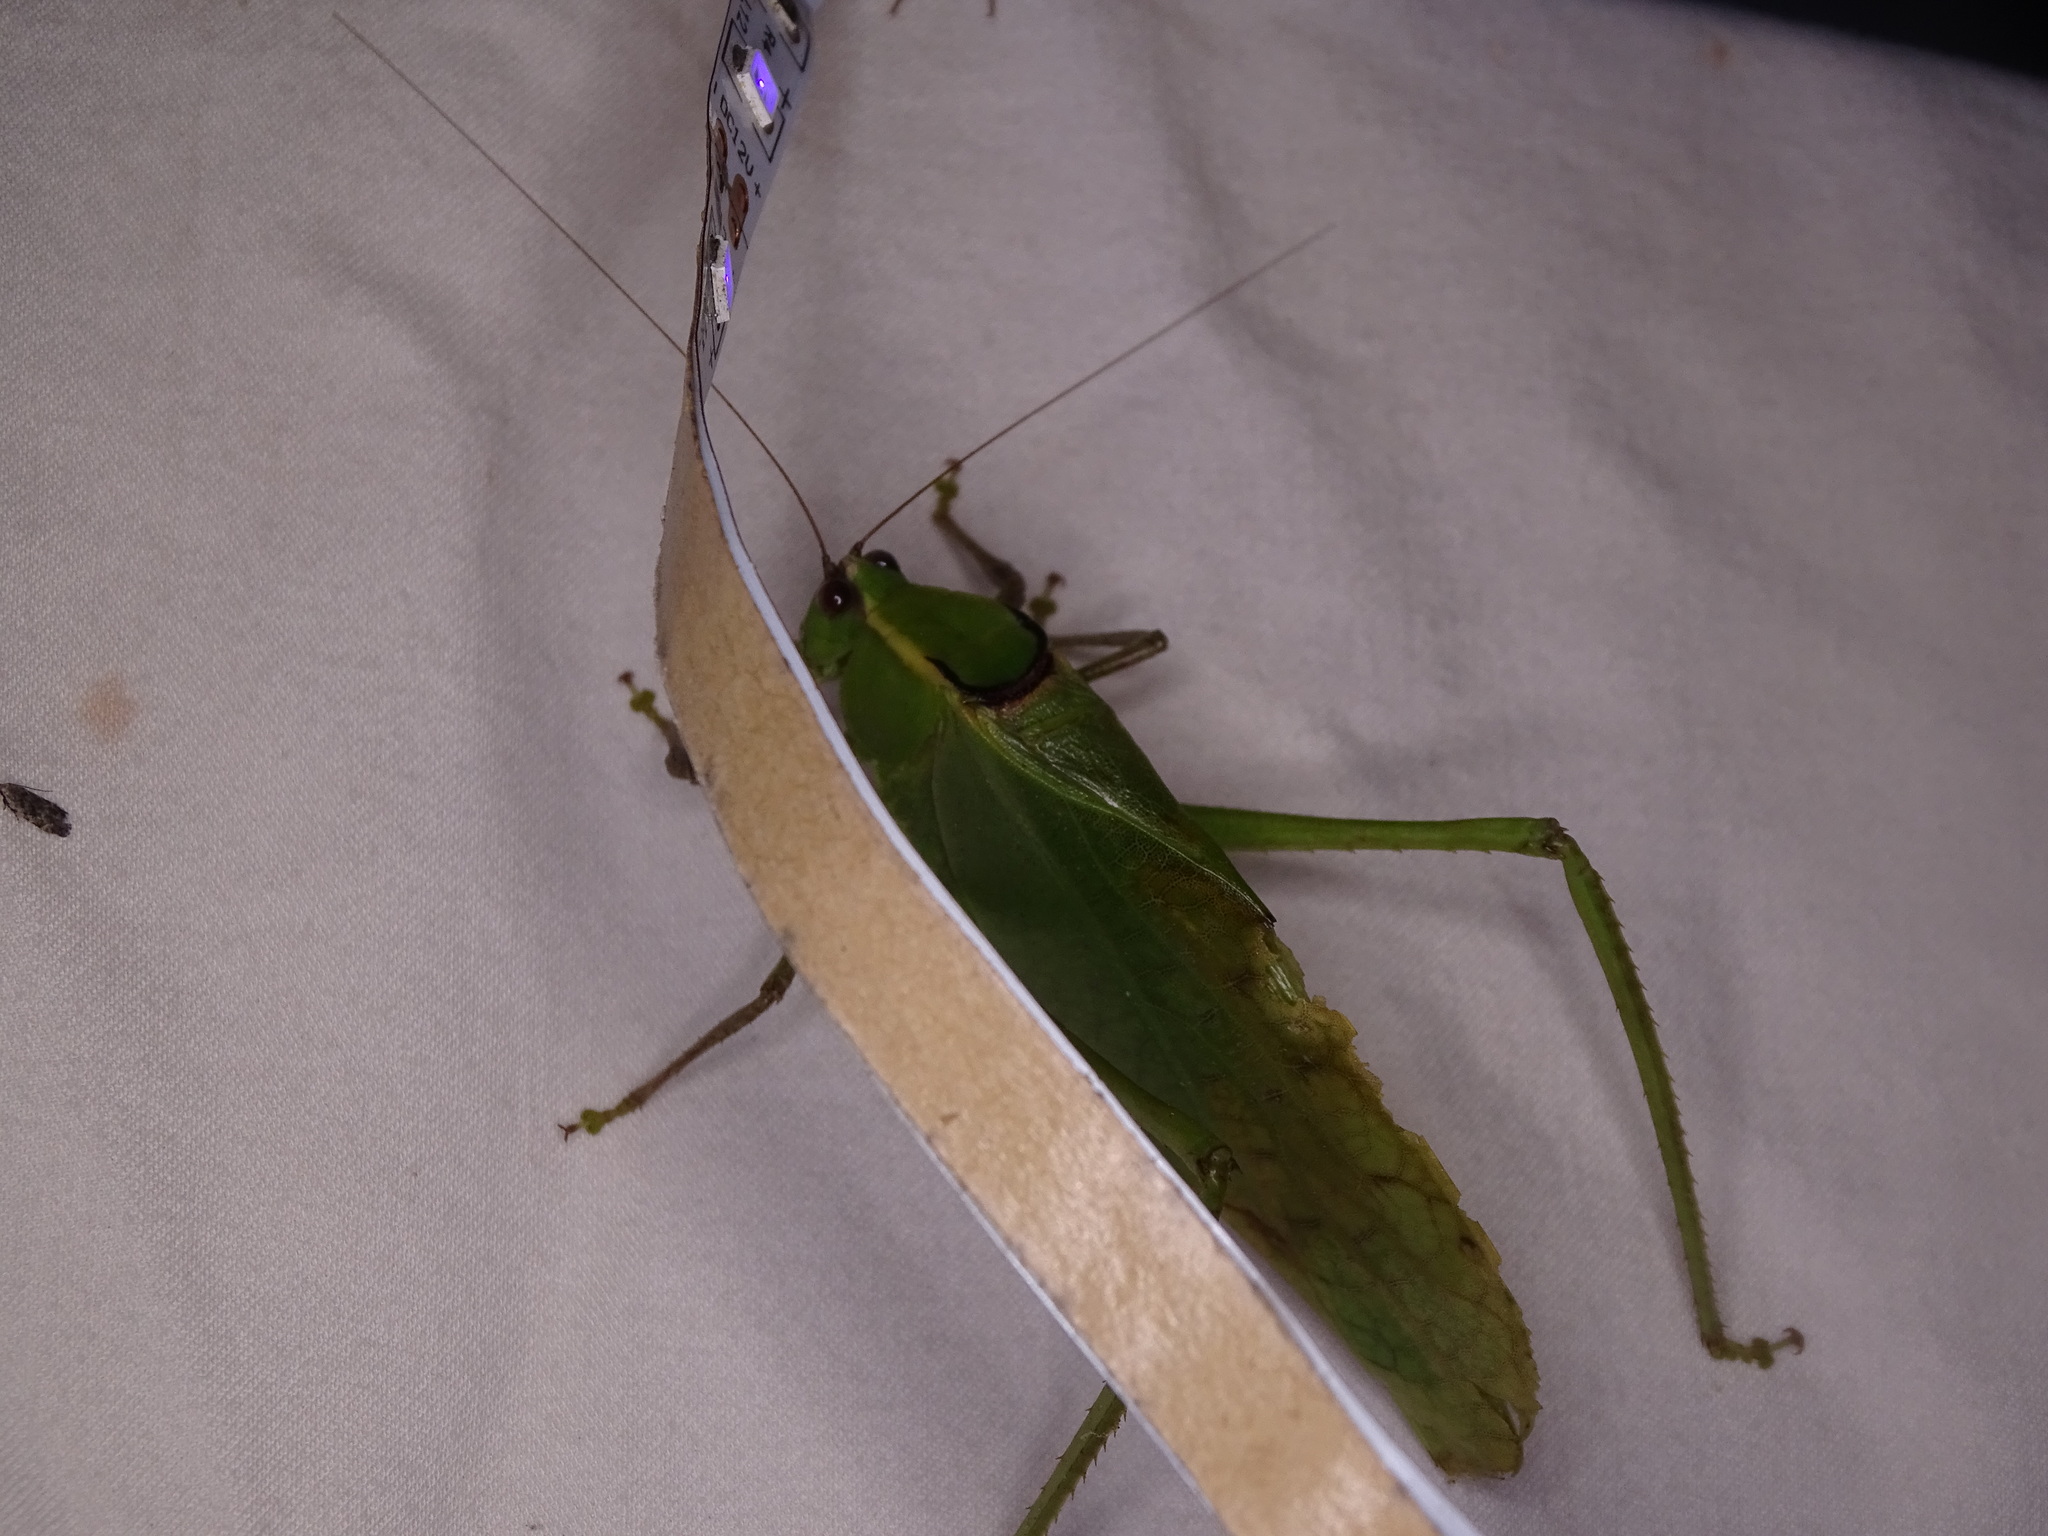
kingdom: Animalia
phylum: Arthropoda
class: Insecta
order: Orthoptera
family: Tettigoniidae
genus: Stilpnochlora
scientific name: Stilpnochlora couloniana
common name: Giant katydid
